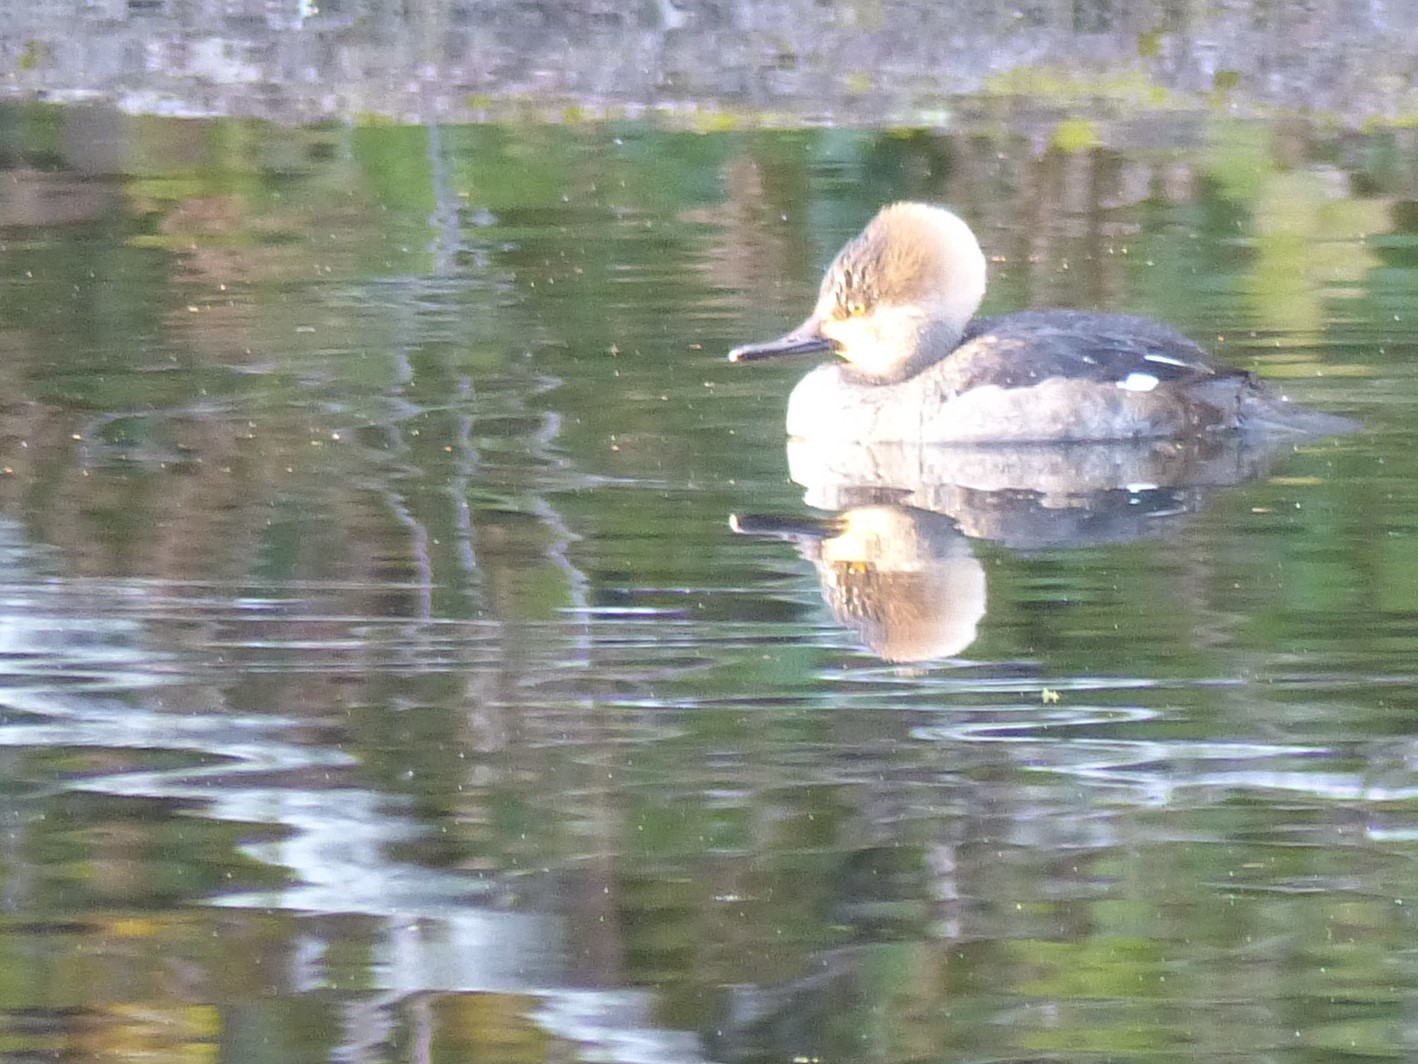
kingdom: Animalia
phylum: Chordata
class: Aves
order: Anseriformes
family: Anatidae
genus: Lophodytes
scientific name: Lophodytes cucullatus
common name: Hooded merganser
